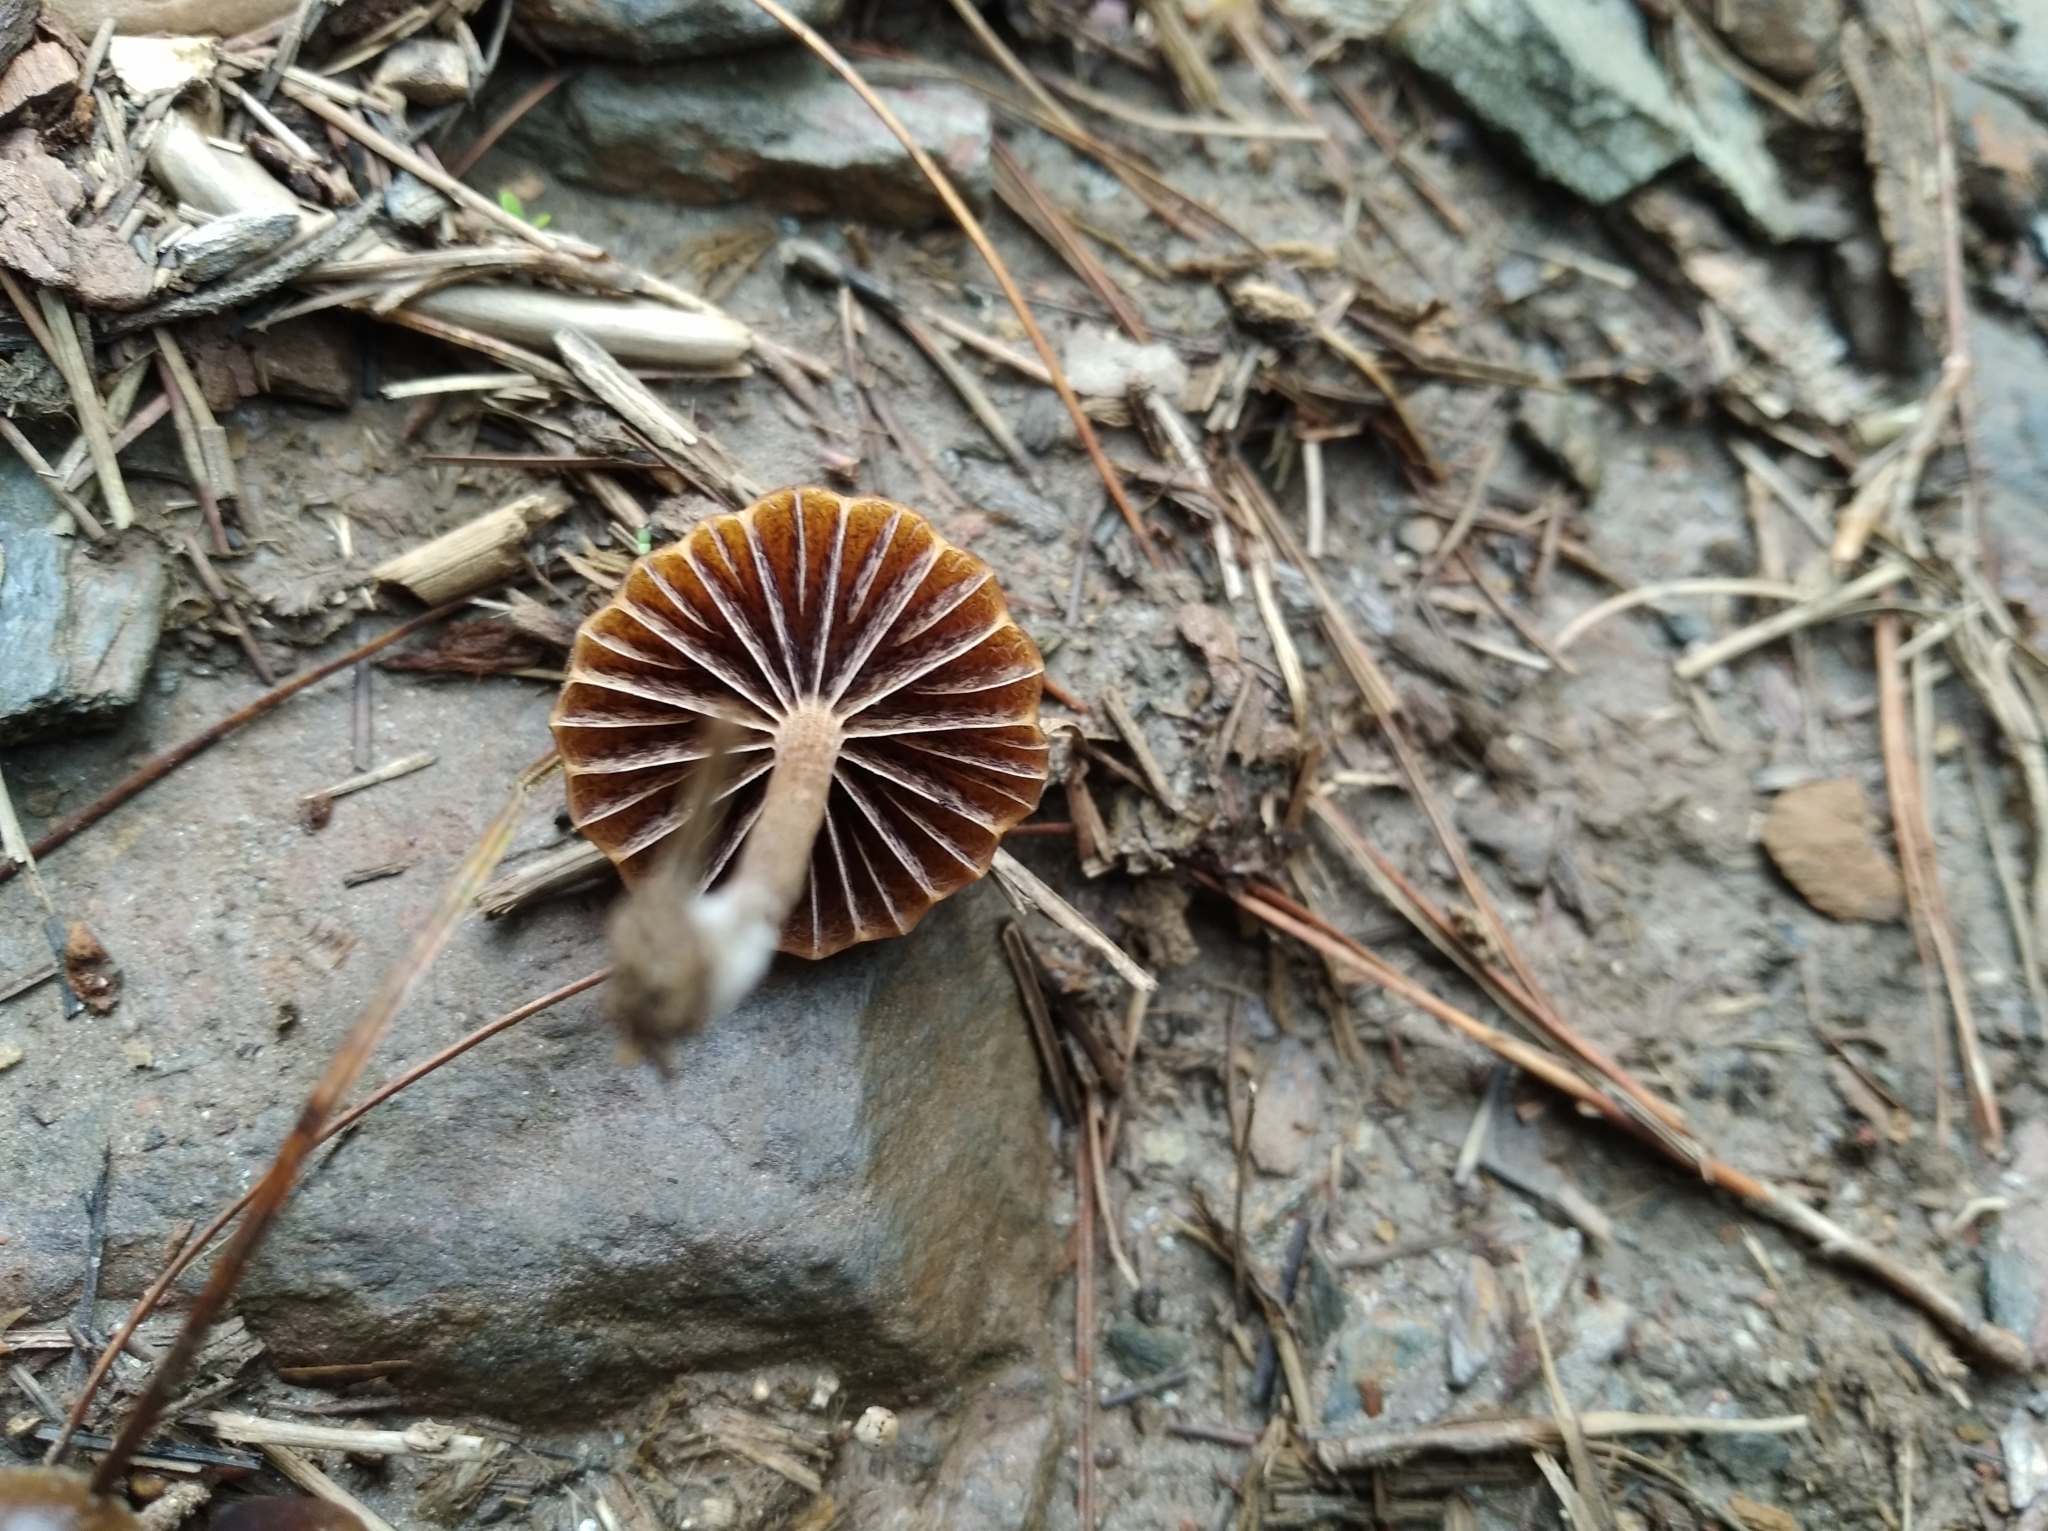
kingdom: Fungi
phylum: Basidiomycota
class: Agaricomycetes
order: Agaricales
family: Strophariaceae
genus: Deconica
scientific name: Deconica coprophila
